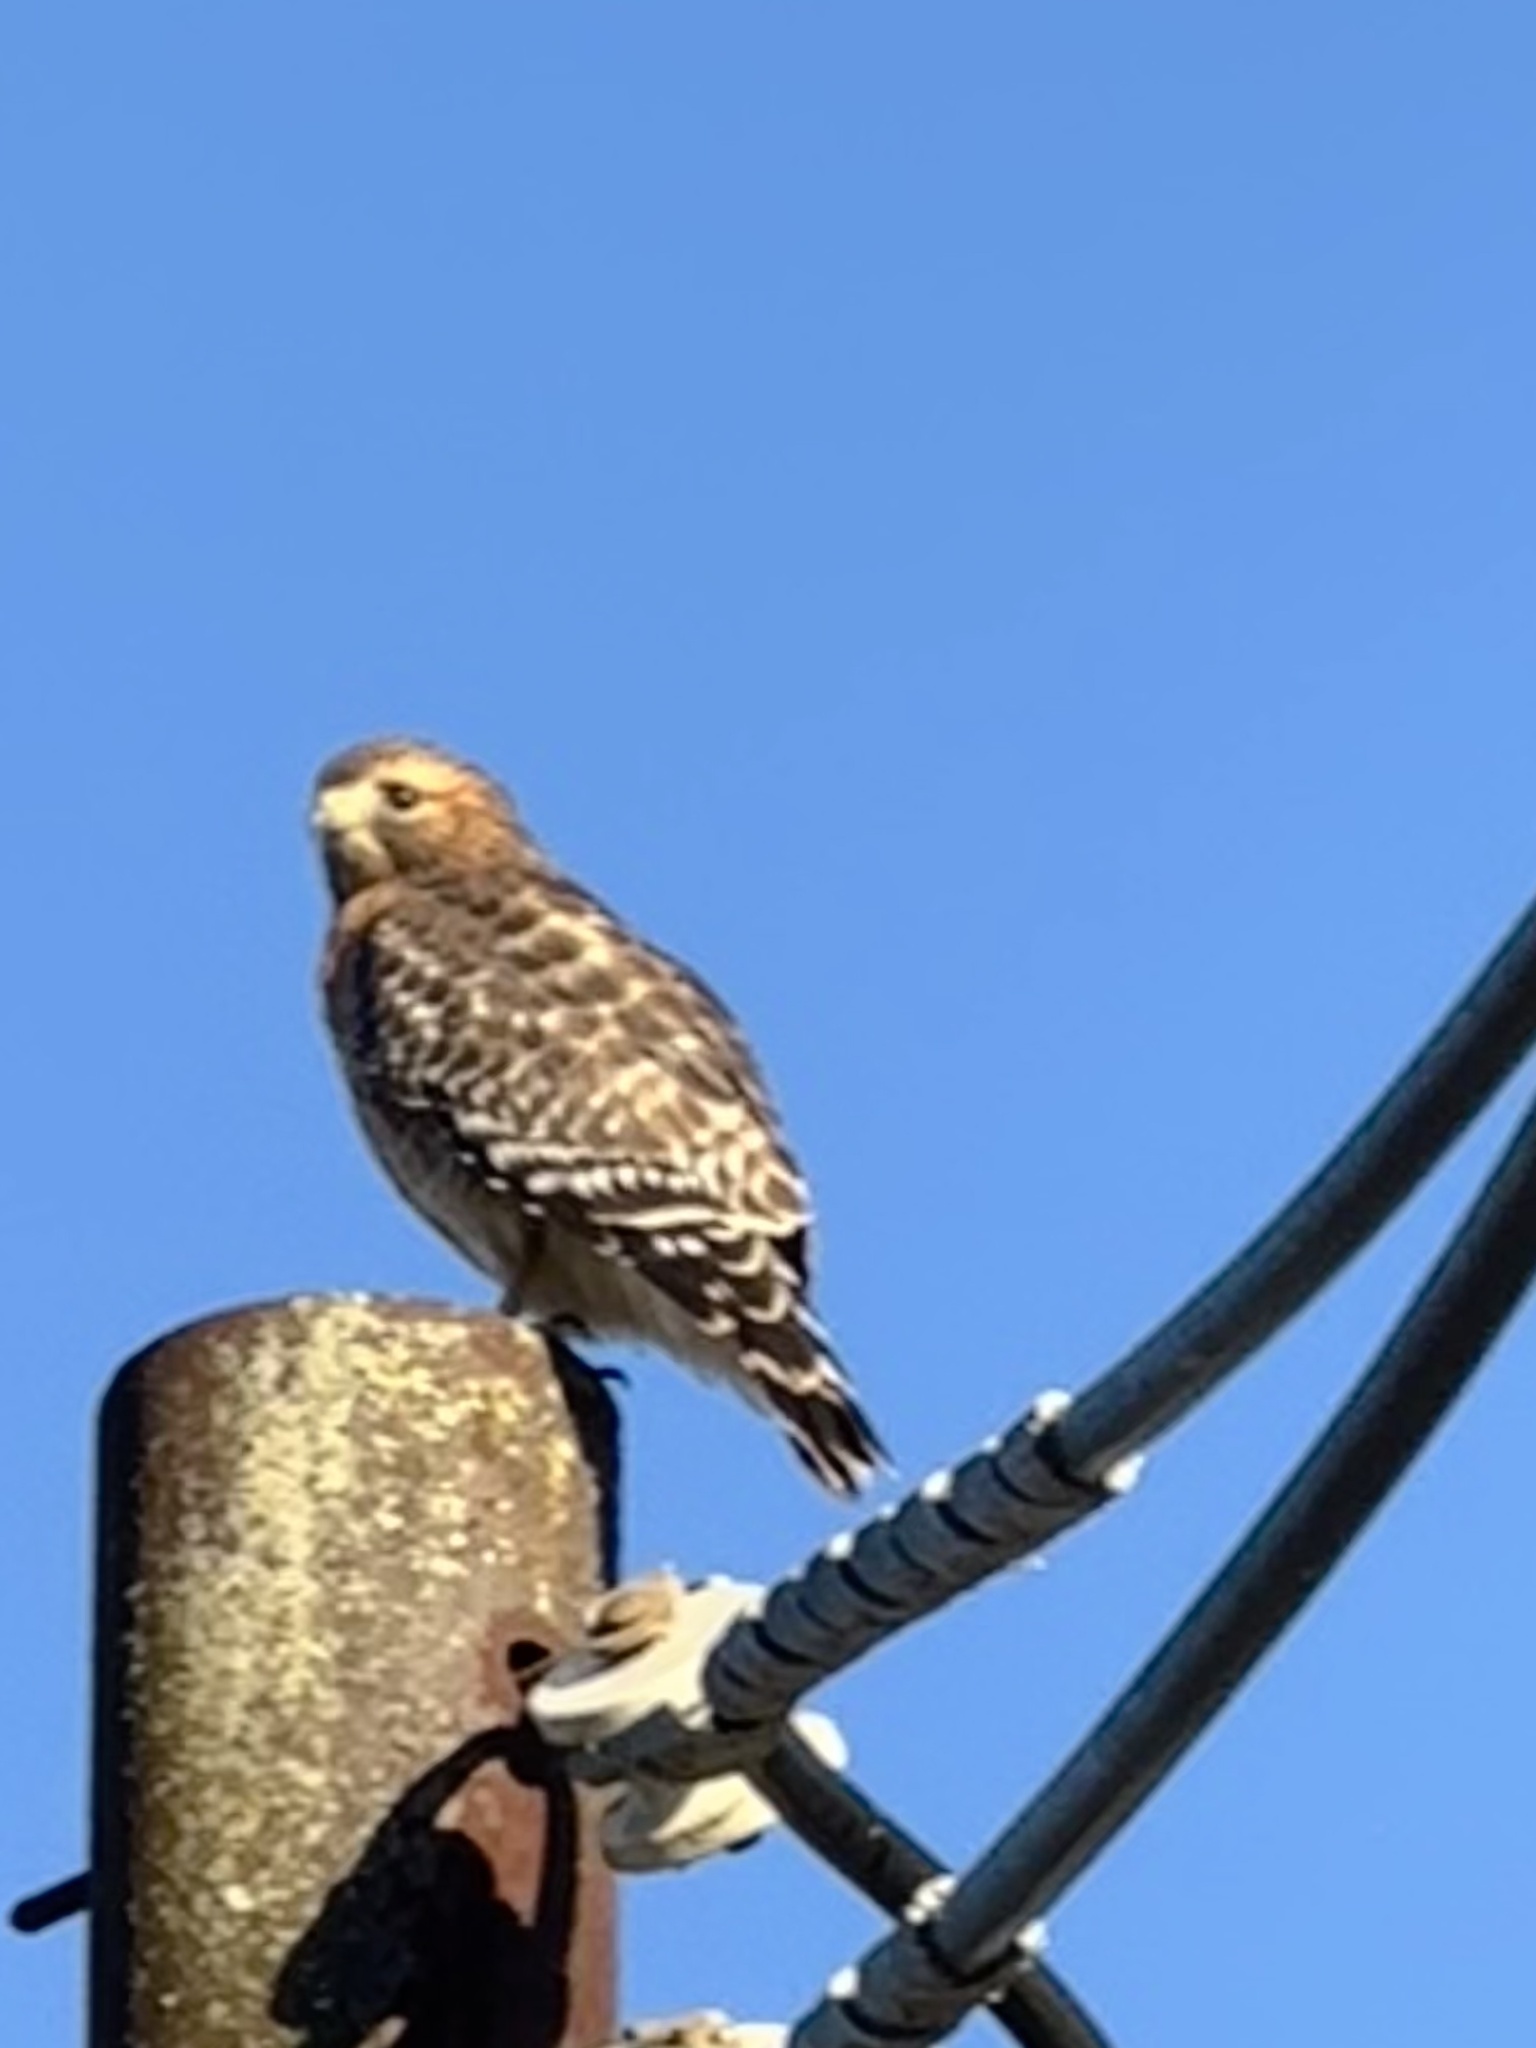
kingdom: Animalia
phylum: Chordata
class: Aves
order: Accipitriformes
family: Accipitridae
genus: Buteo
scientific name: Buteo lineatus
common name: Red-shouldered hawk
